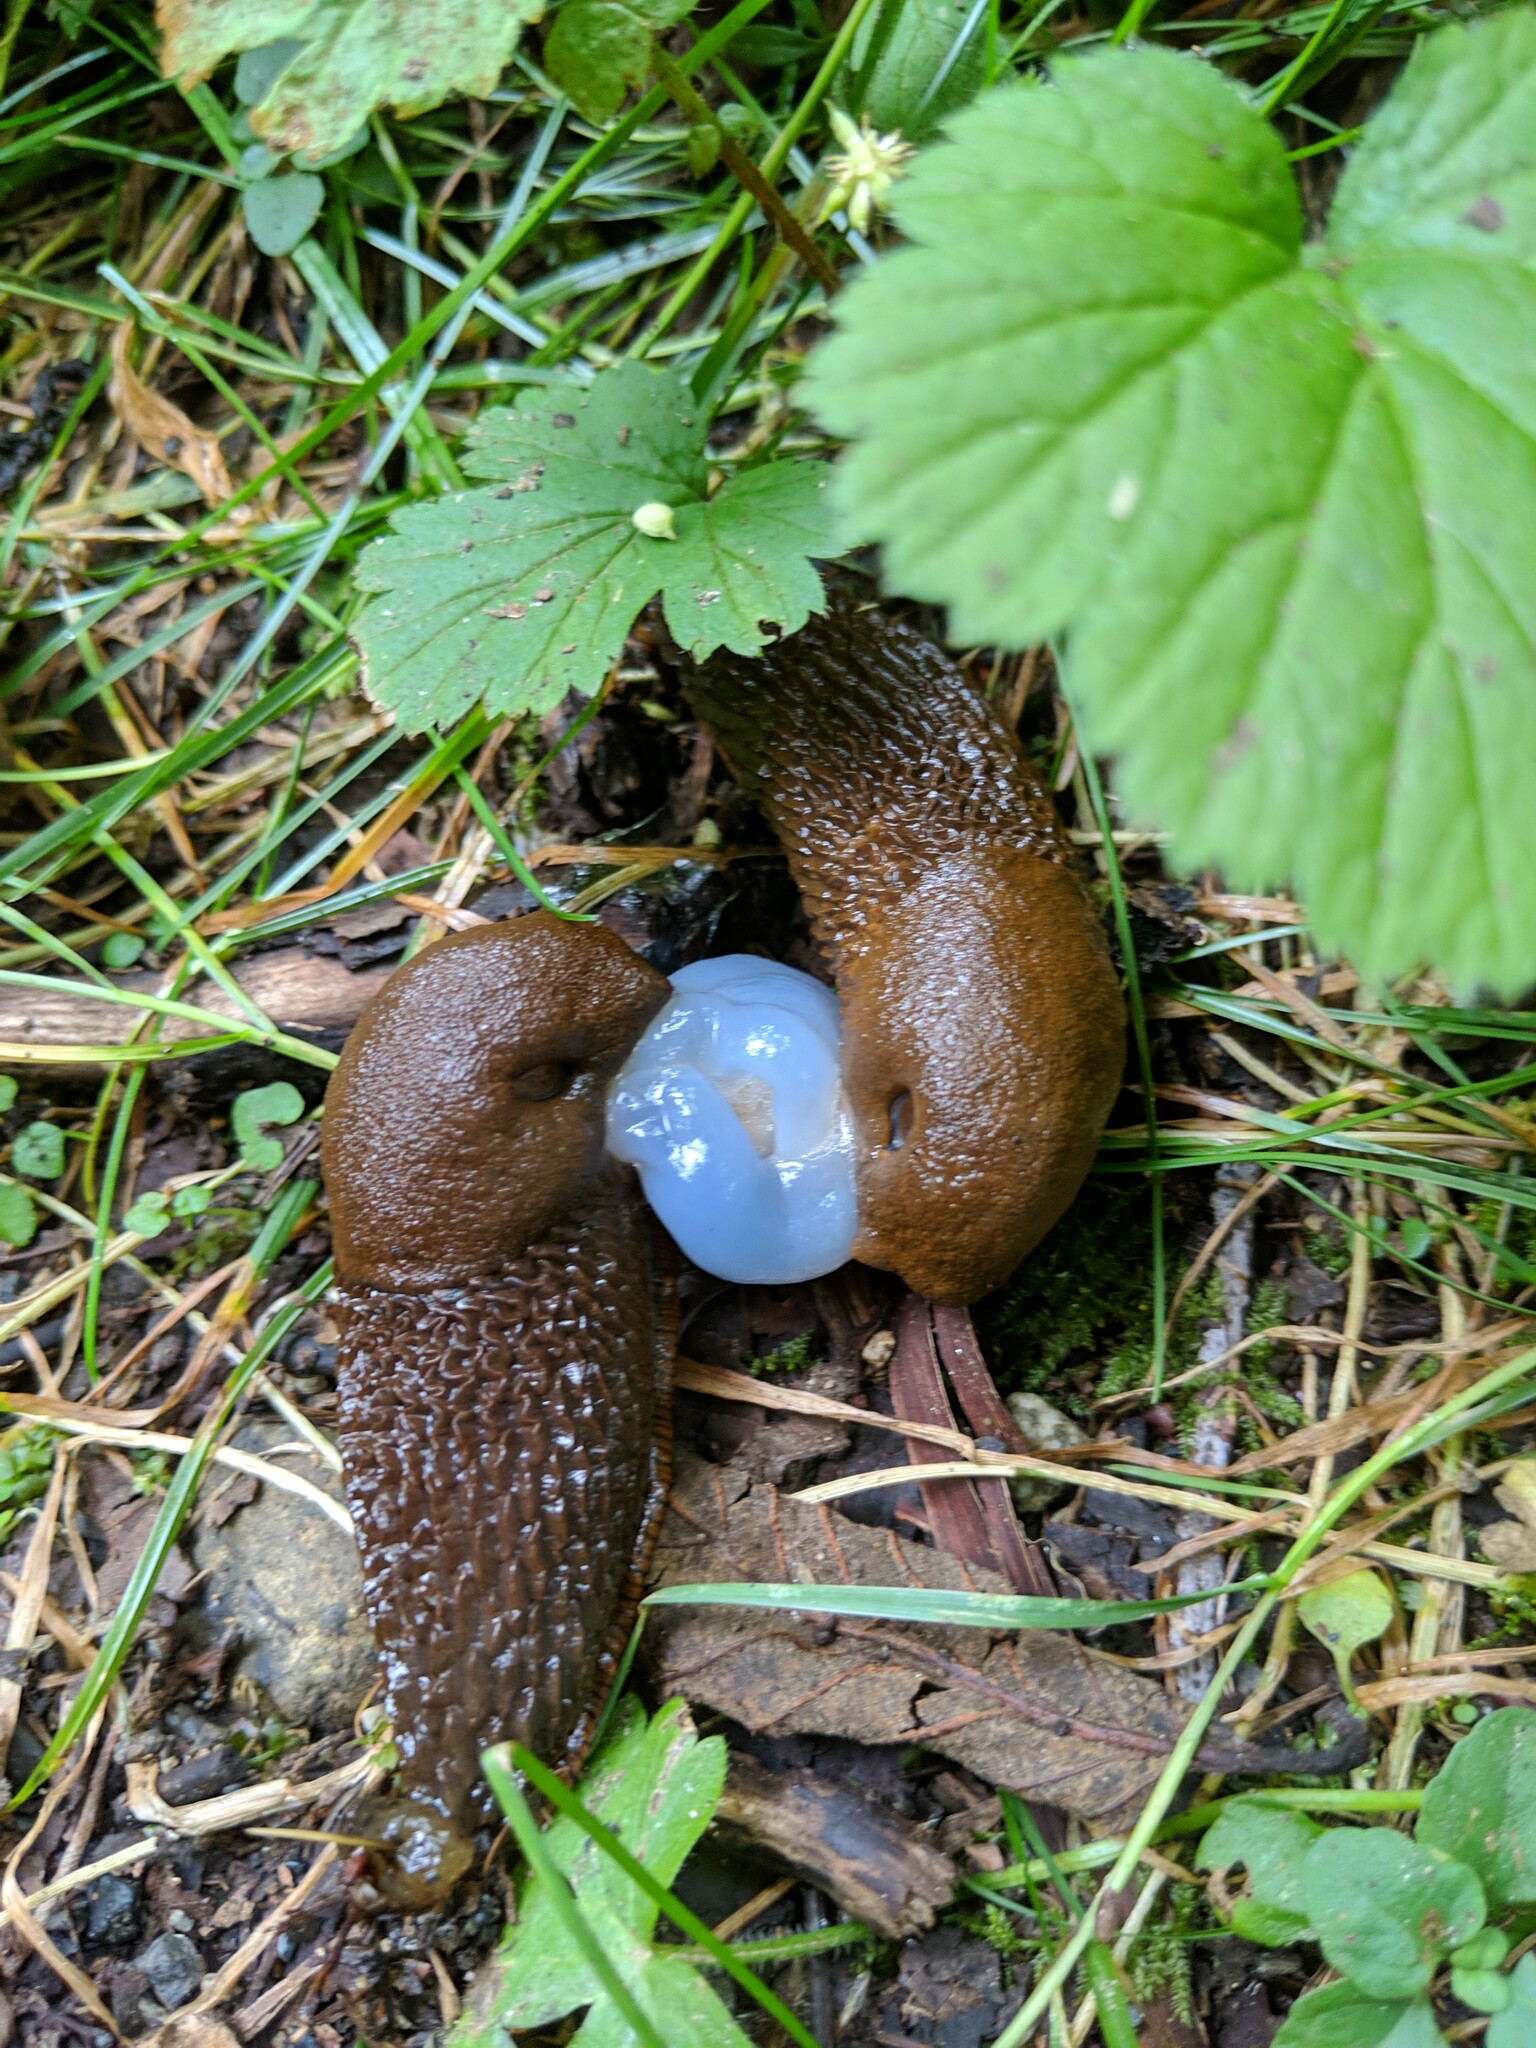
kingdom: Animalia
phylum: Mollusca
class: Gastropoda
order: Stylommatophora
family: Arionidae
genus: Arion
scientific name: Arion
